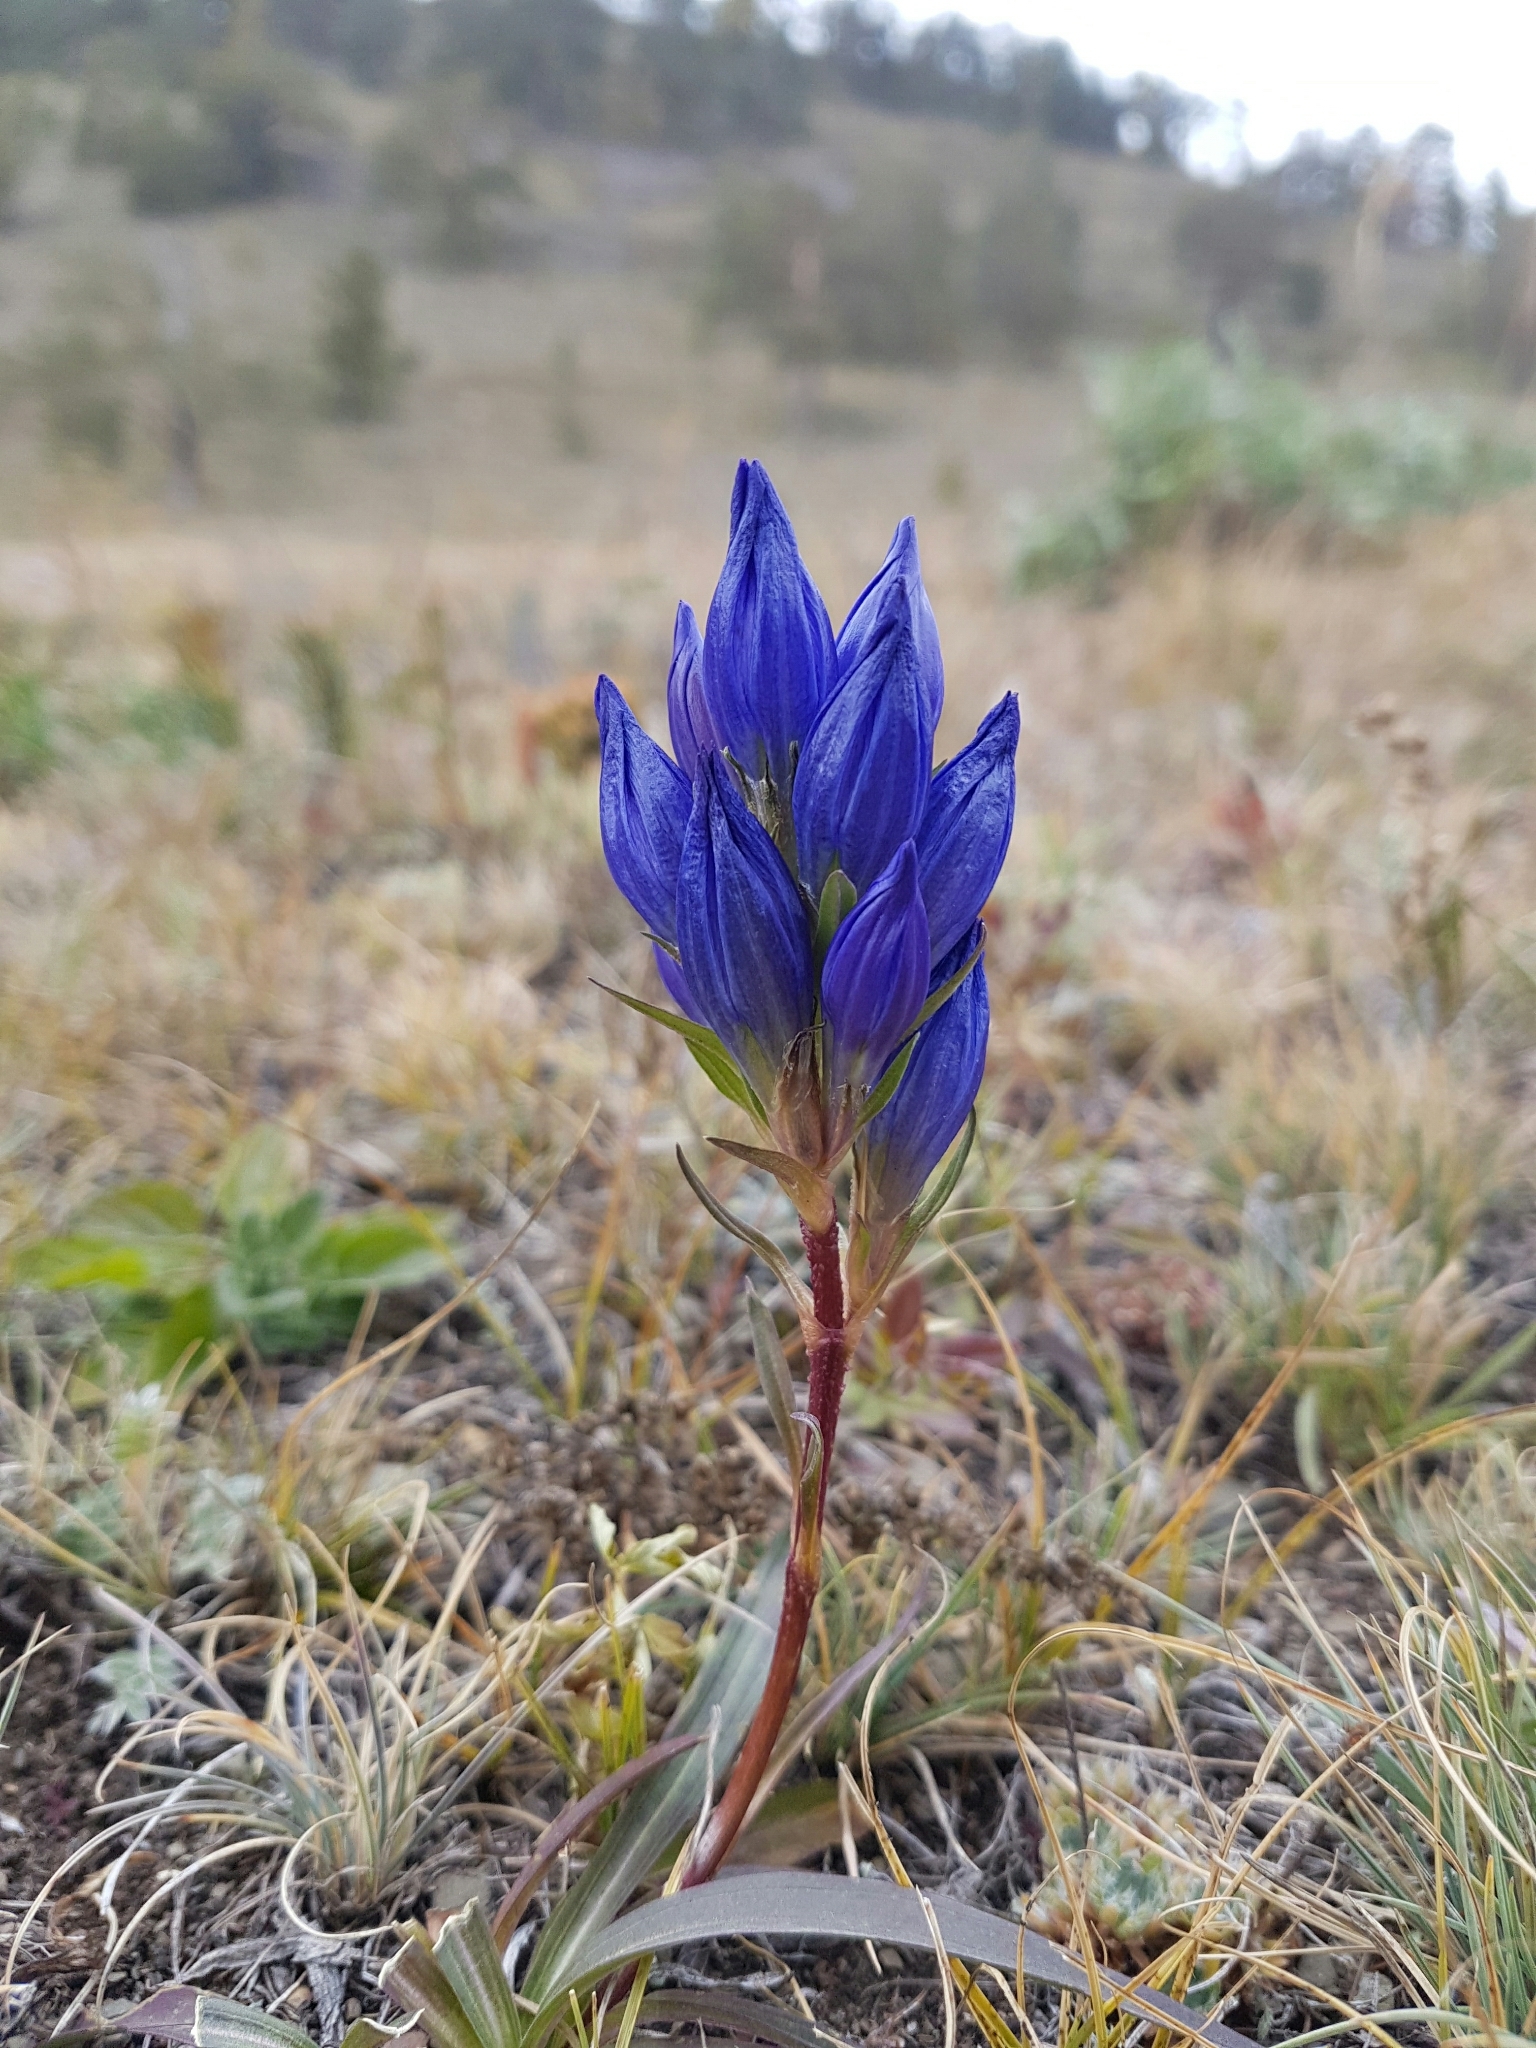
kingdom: Plantae
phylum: Tracheophyta
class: Magnoliopsida
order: Gentianales
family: Gentianaceae
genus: Gentiana
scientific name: Gentiana decumbens
